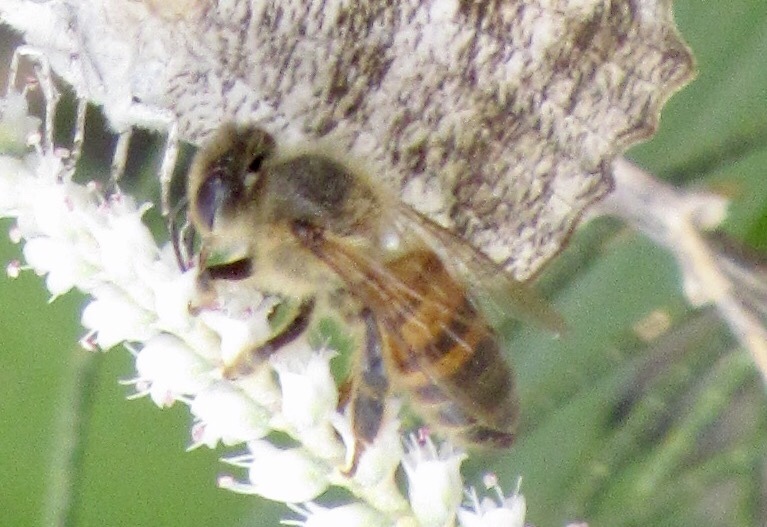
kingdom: Animalia
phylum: Arthropoda
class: Insecta
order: Hymenoptera
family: Apidae
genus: Apis
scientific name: Apis mellifera
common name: Honey bee
